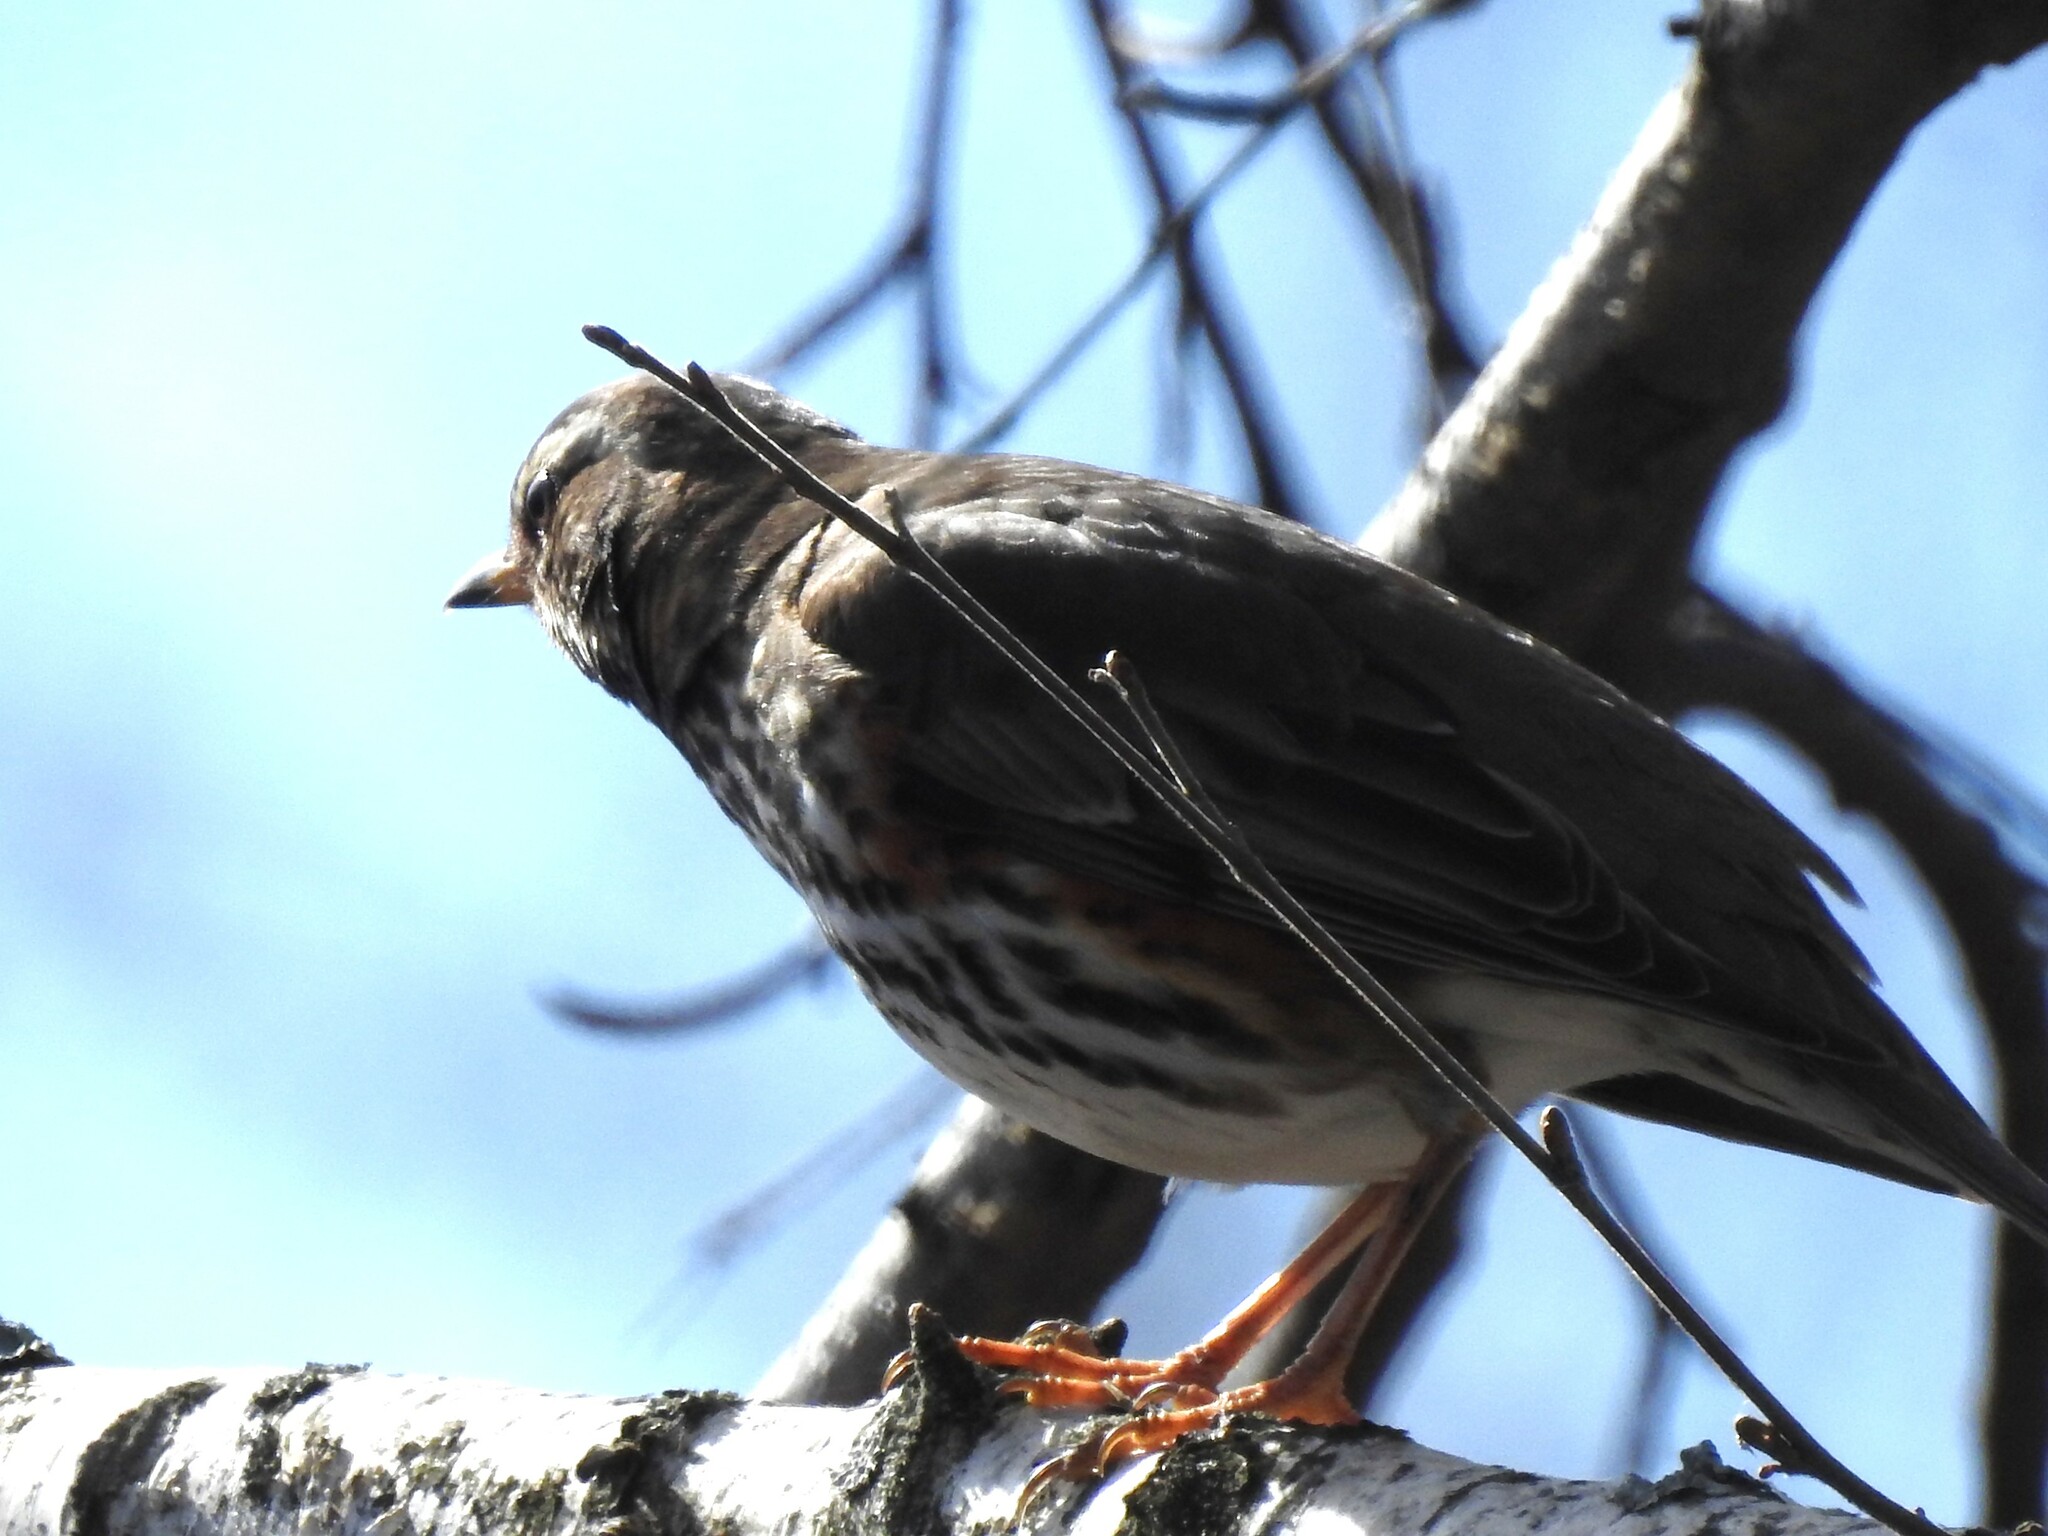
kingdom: Animalia
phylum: Chordata
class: Aves
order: Passeriformes
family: Turdidae
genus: Turdus
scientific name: Turdus iliacus
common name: Redwing
